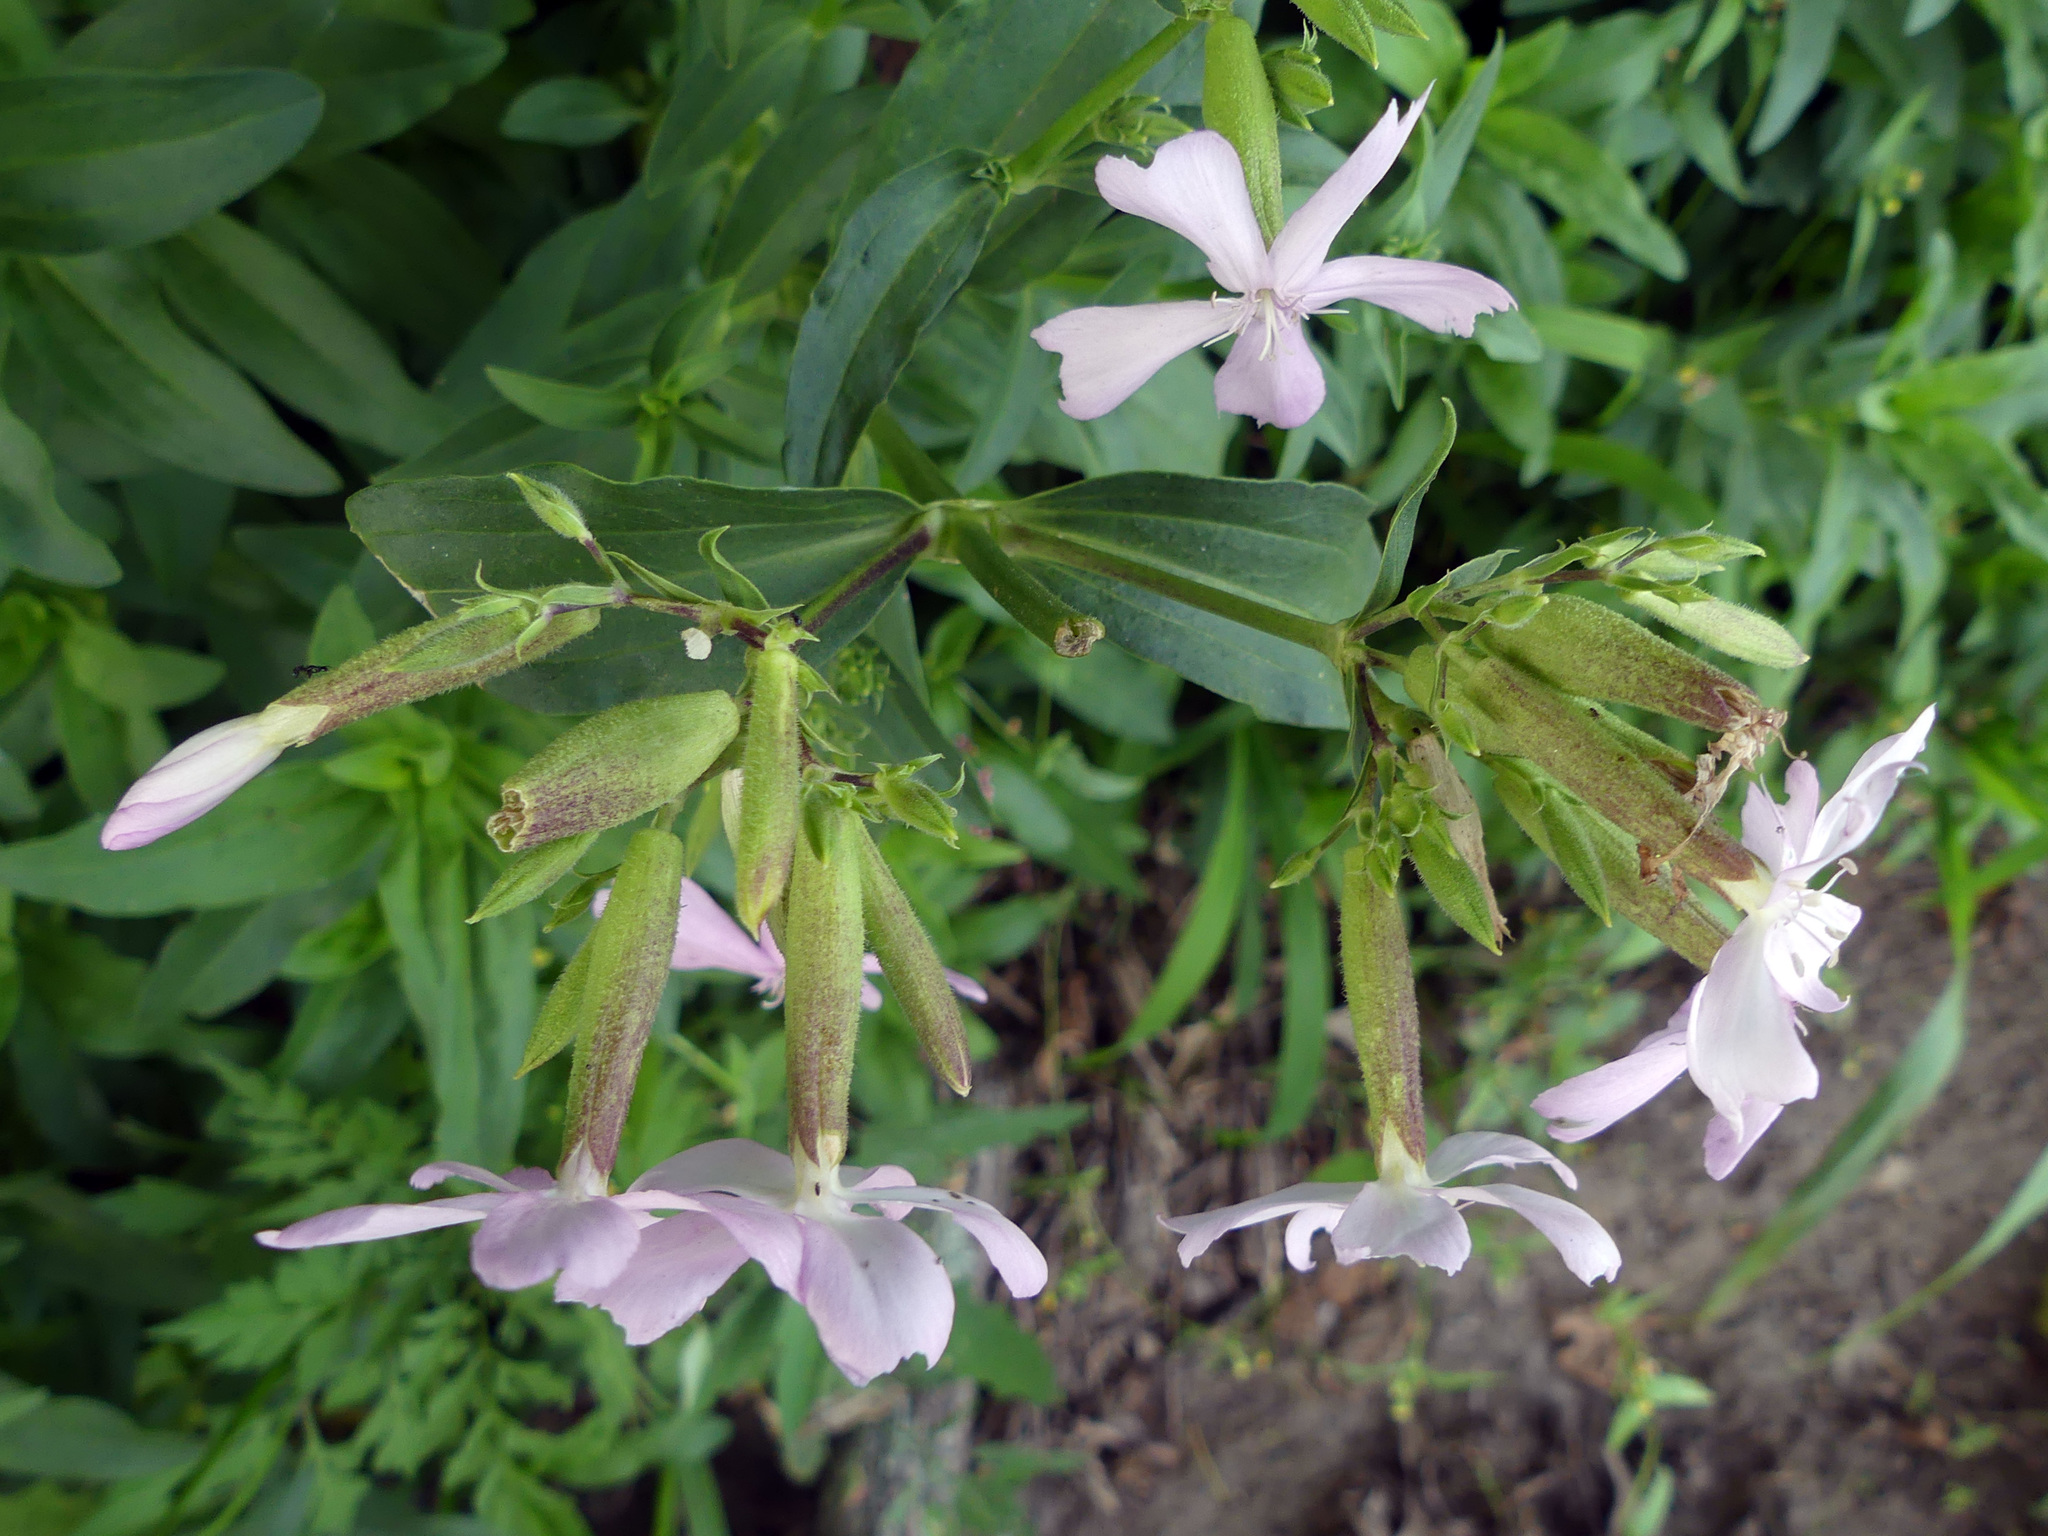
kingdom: Plantae
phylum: Tracheophyta
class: Magnoliopsida
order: Caryophyllales
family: Caryophyllaceae
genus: Saponaria
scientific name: Saponaria officinalis
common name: Soapwort
